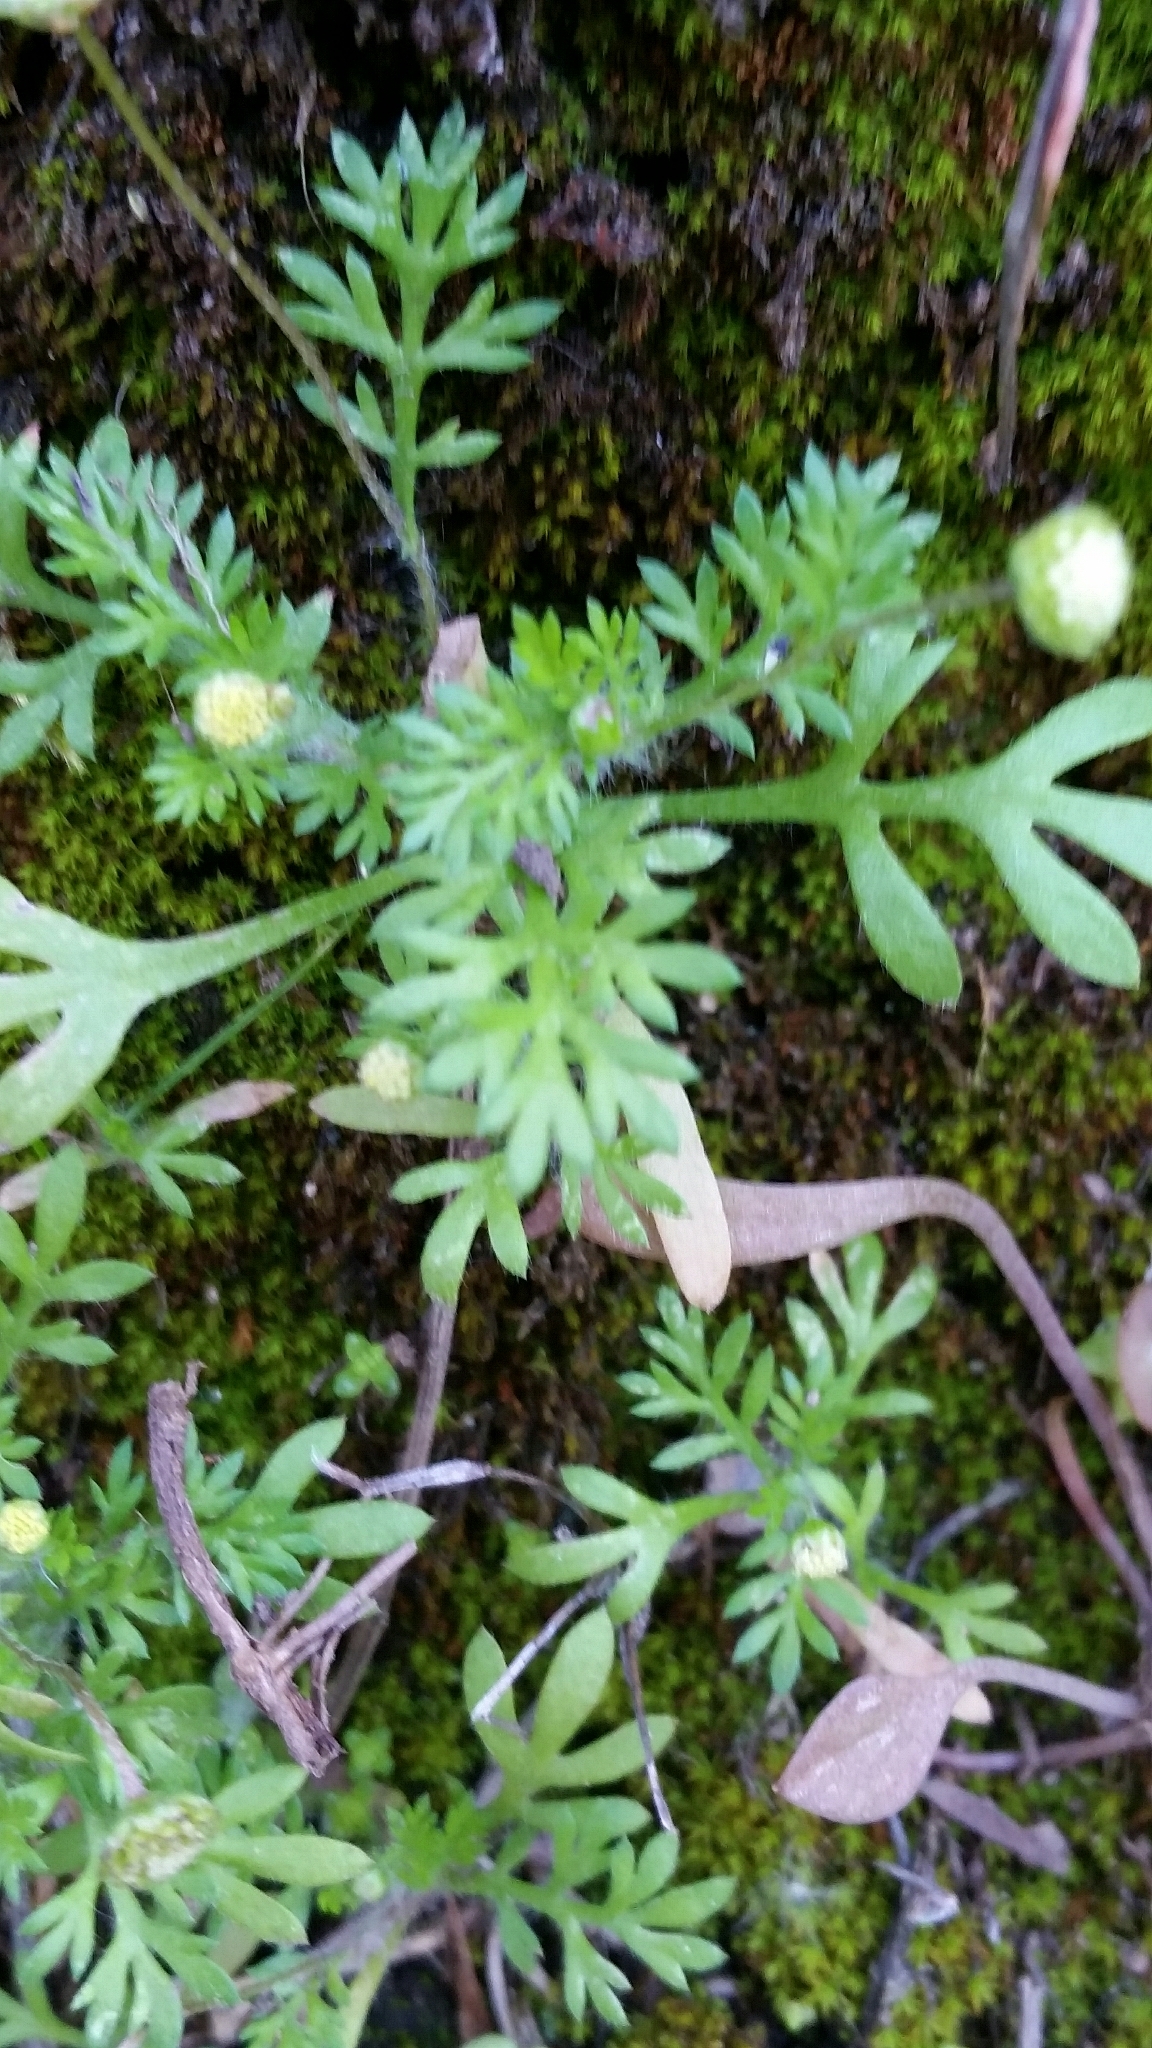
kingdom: Plantae
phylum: Tracheophyta
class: Magnoliopsida
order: Asterales
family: Asteraceae
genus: Cotula
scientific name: Cotula australis
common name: Australian waterbuttons
